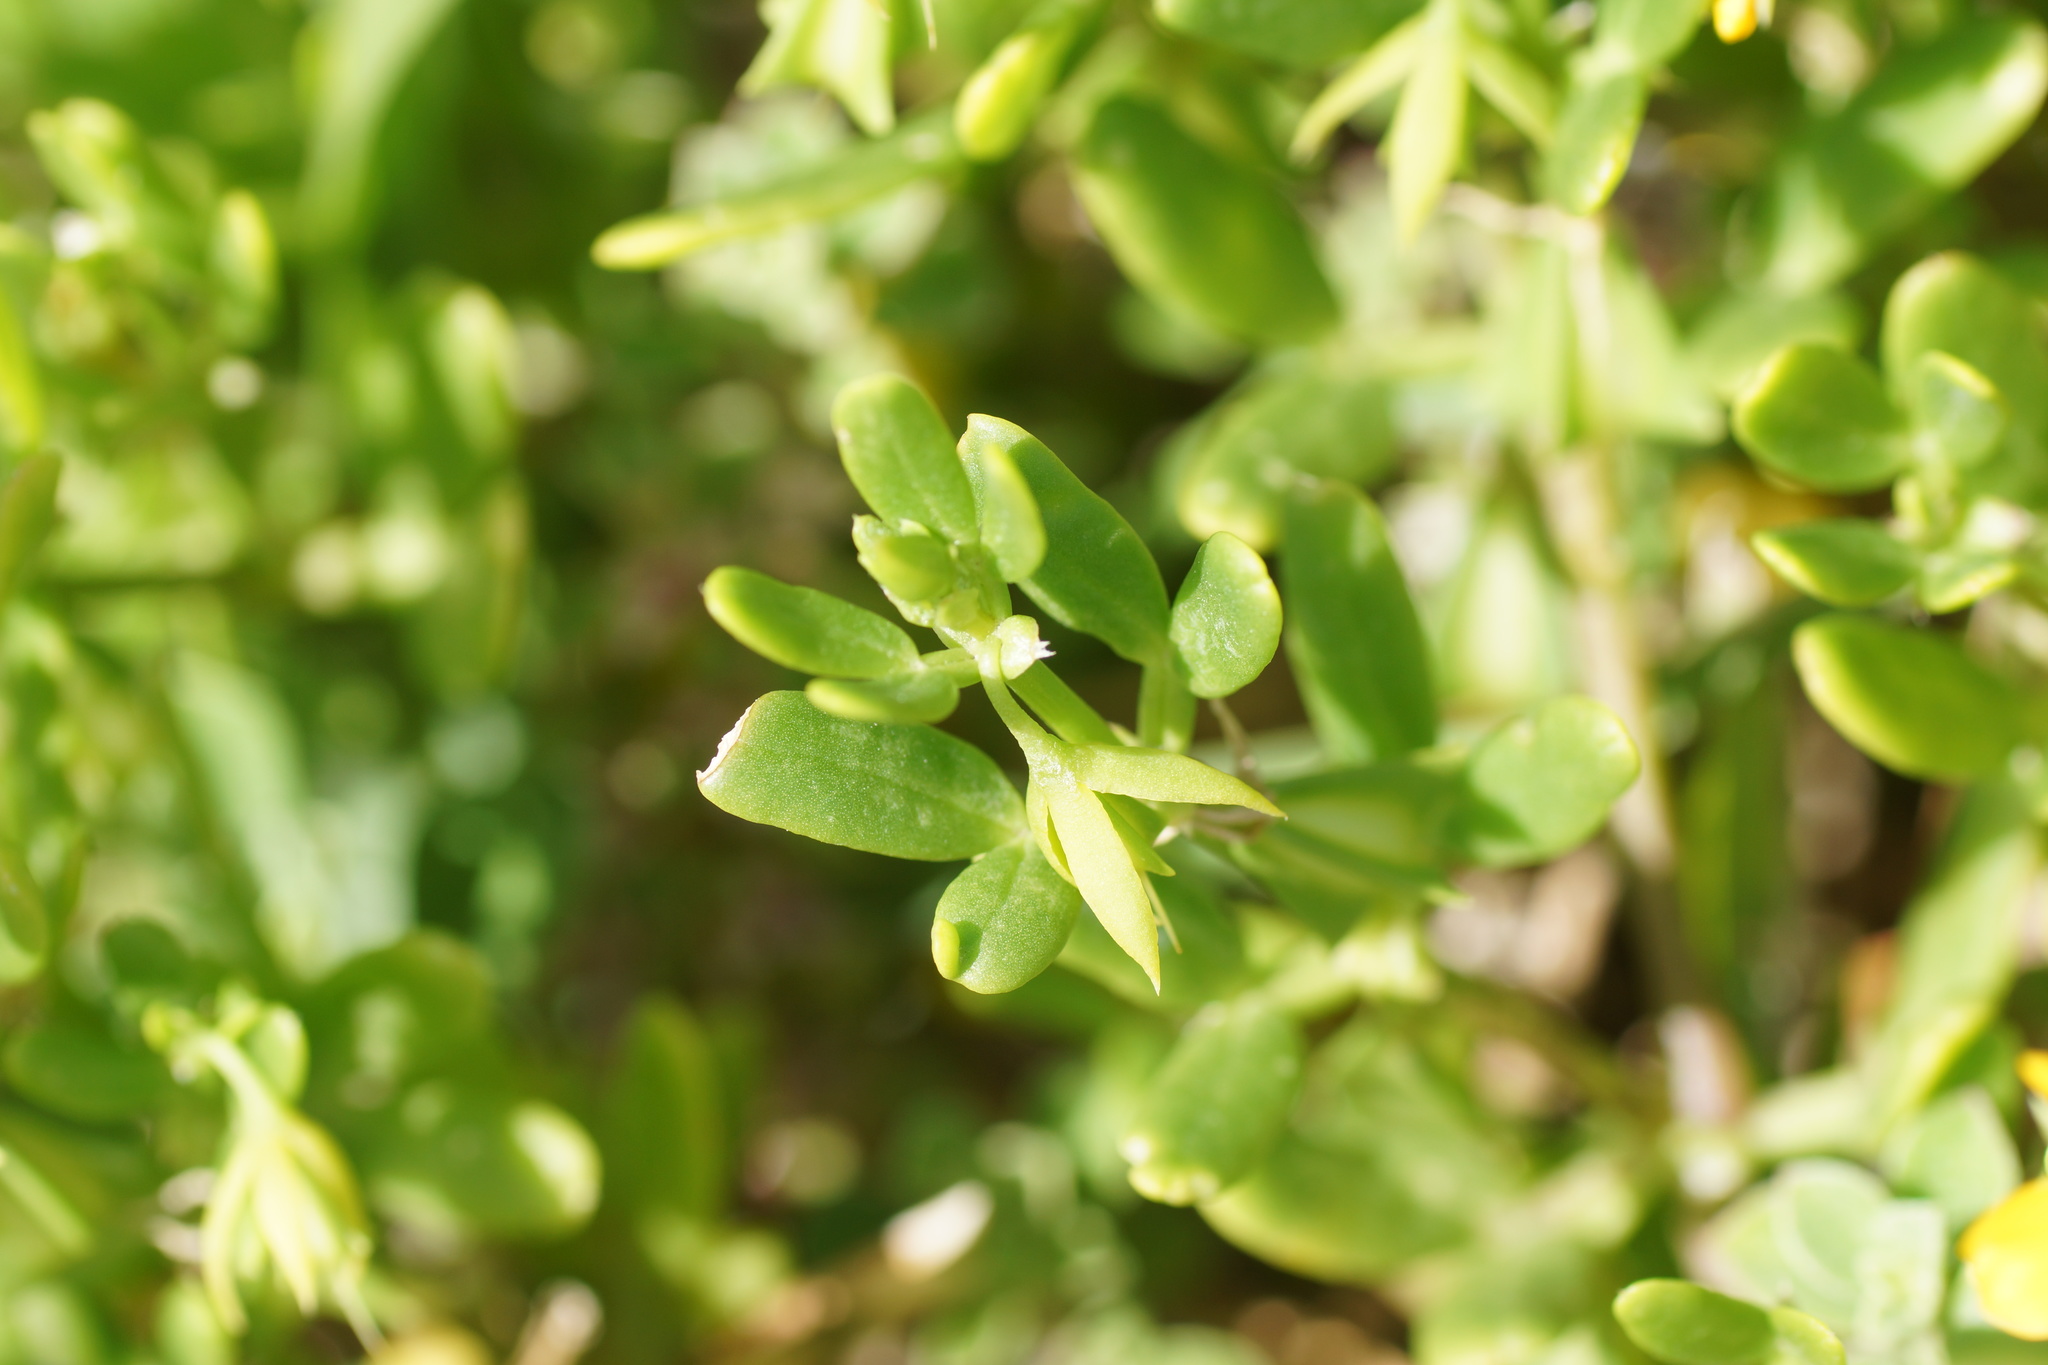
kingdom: Plantae
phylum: Tracheophyta
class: Magnoliopsida
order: Zygophyllales
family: Zygophyllaceae
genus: Roepera
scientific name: Roepera billardieri
